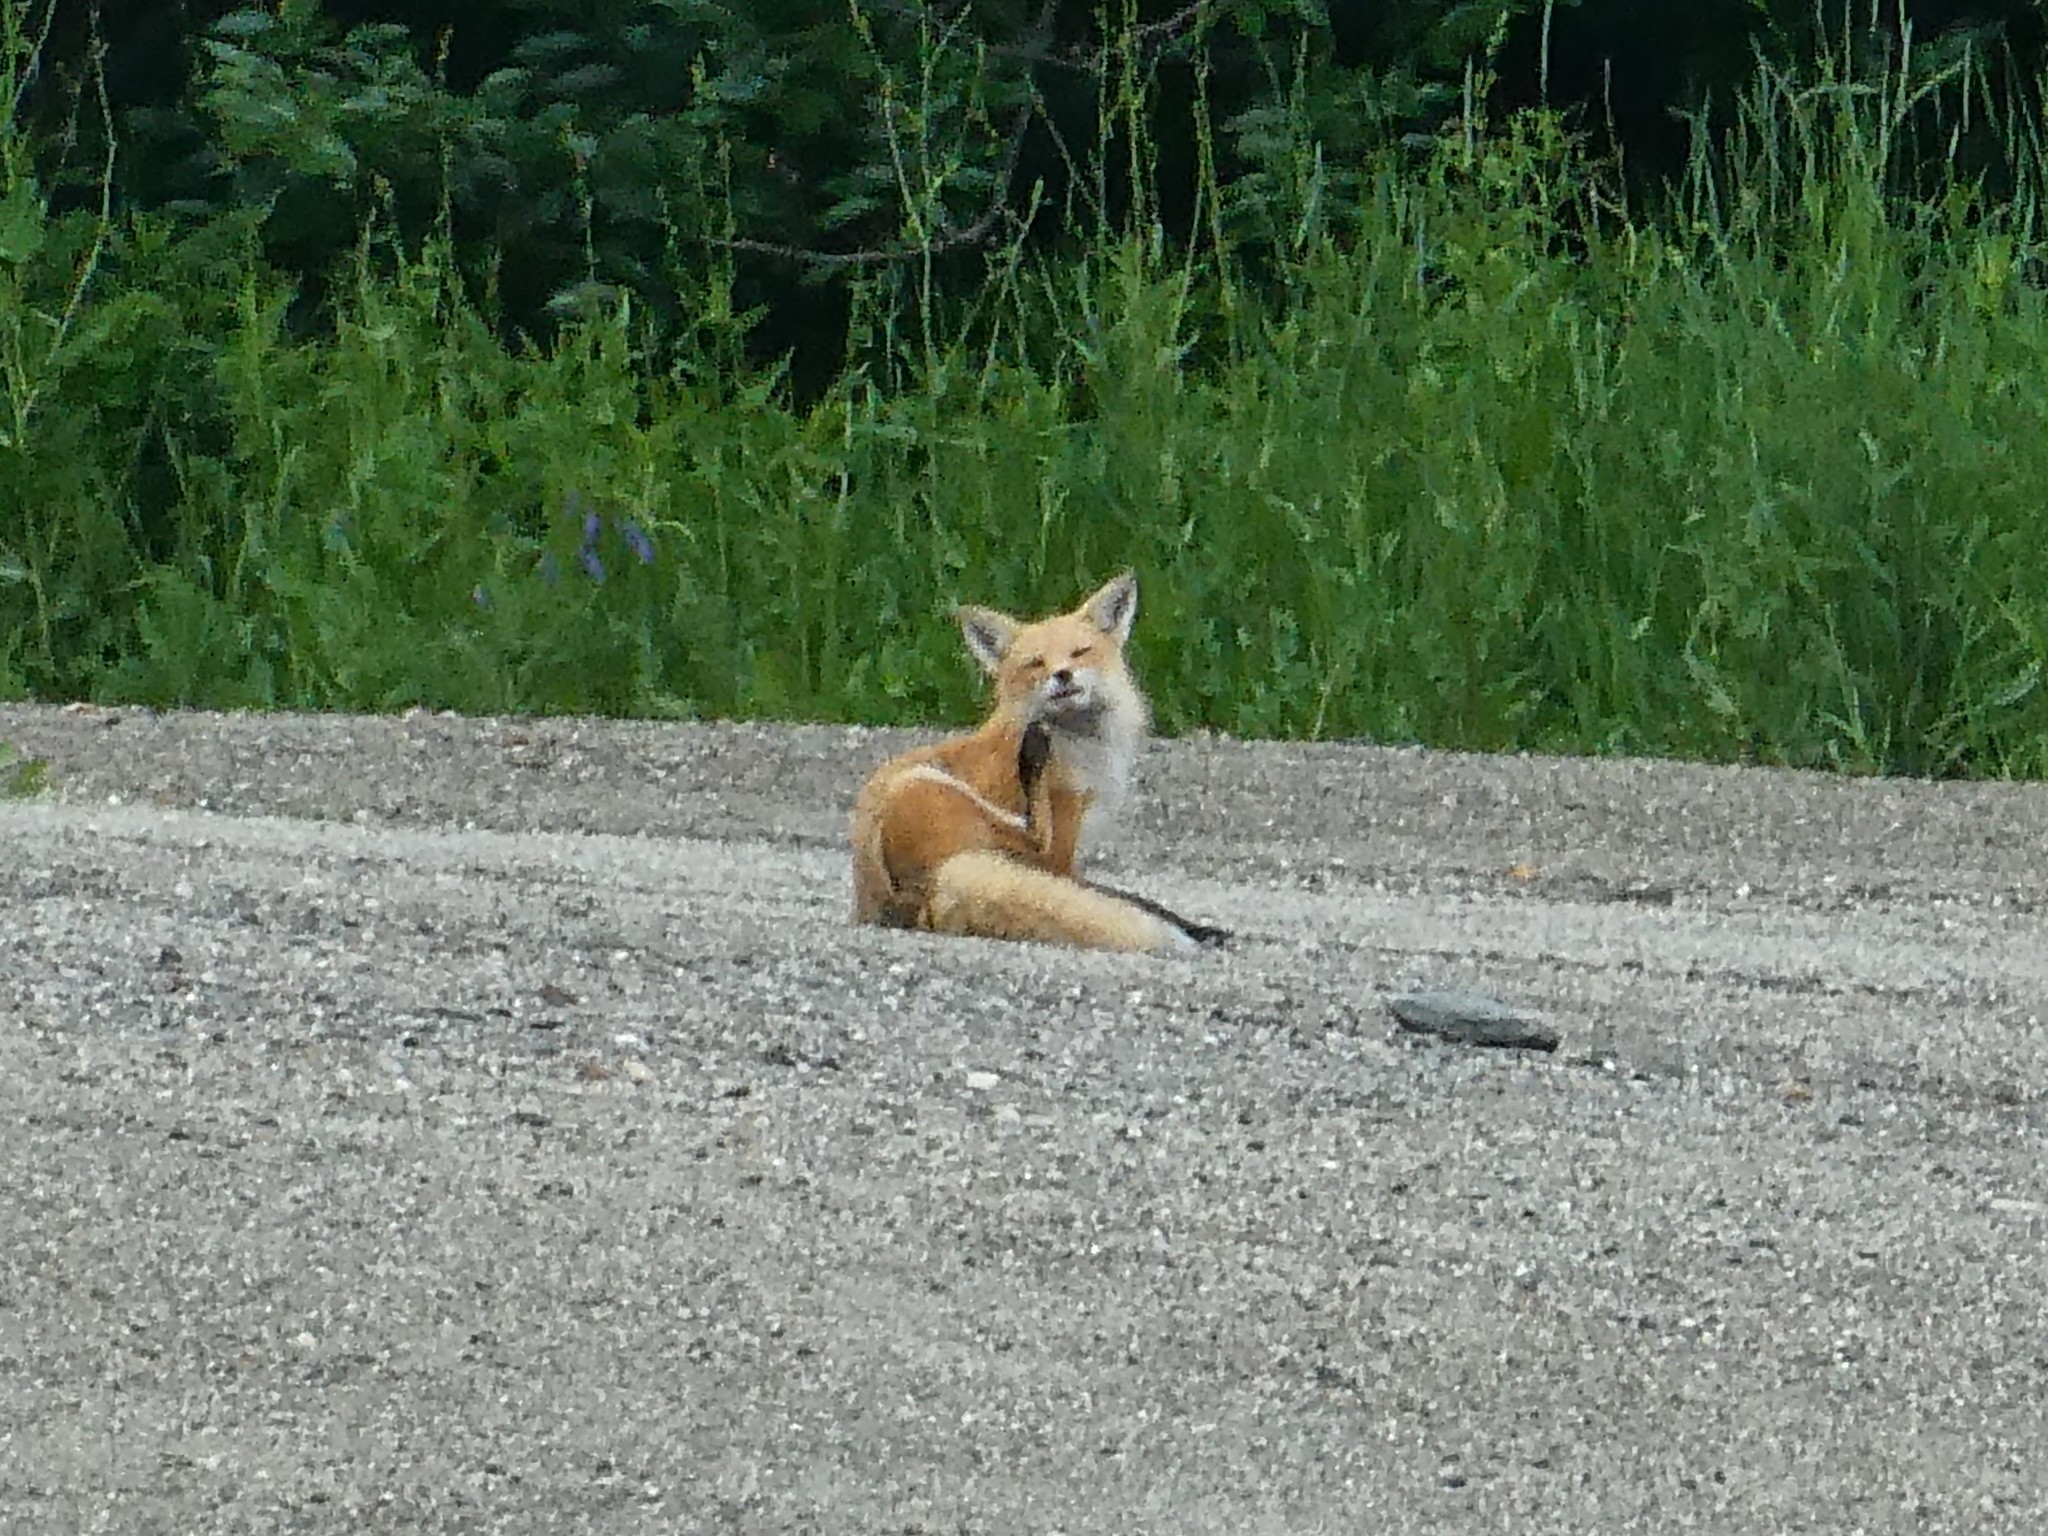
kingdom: Animalia
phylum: Chordata
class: Mammalia
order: Carnivora
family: Canidae
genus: Vulpes
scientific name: Vulpes vulpes
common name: Red fox
